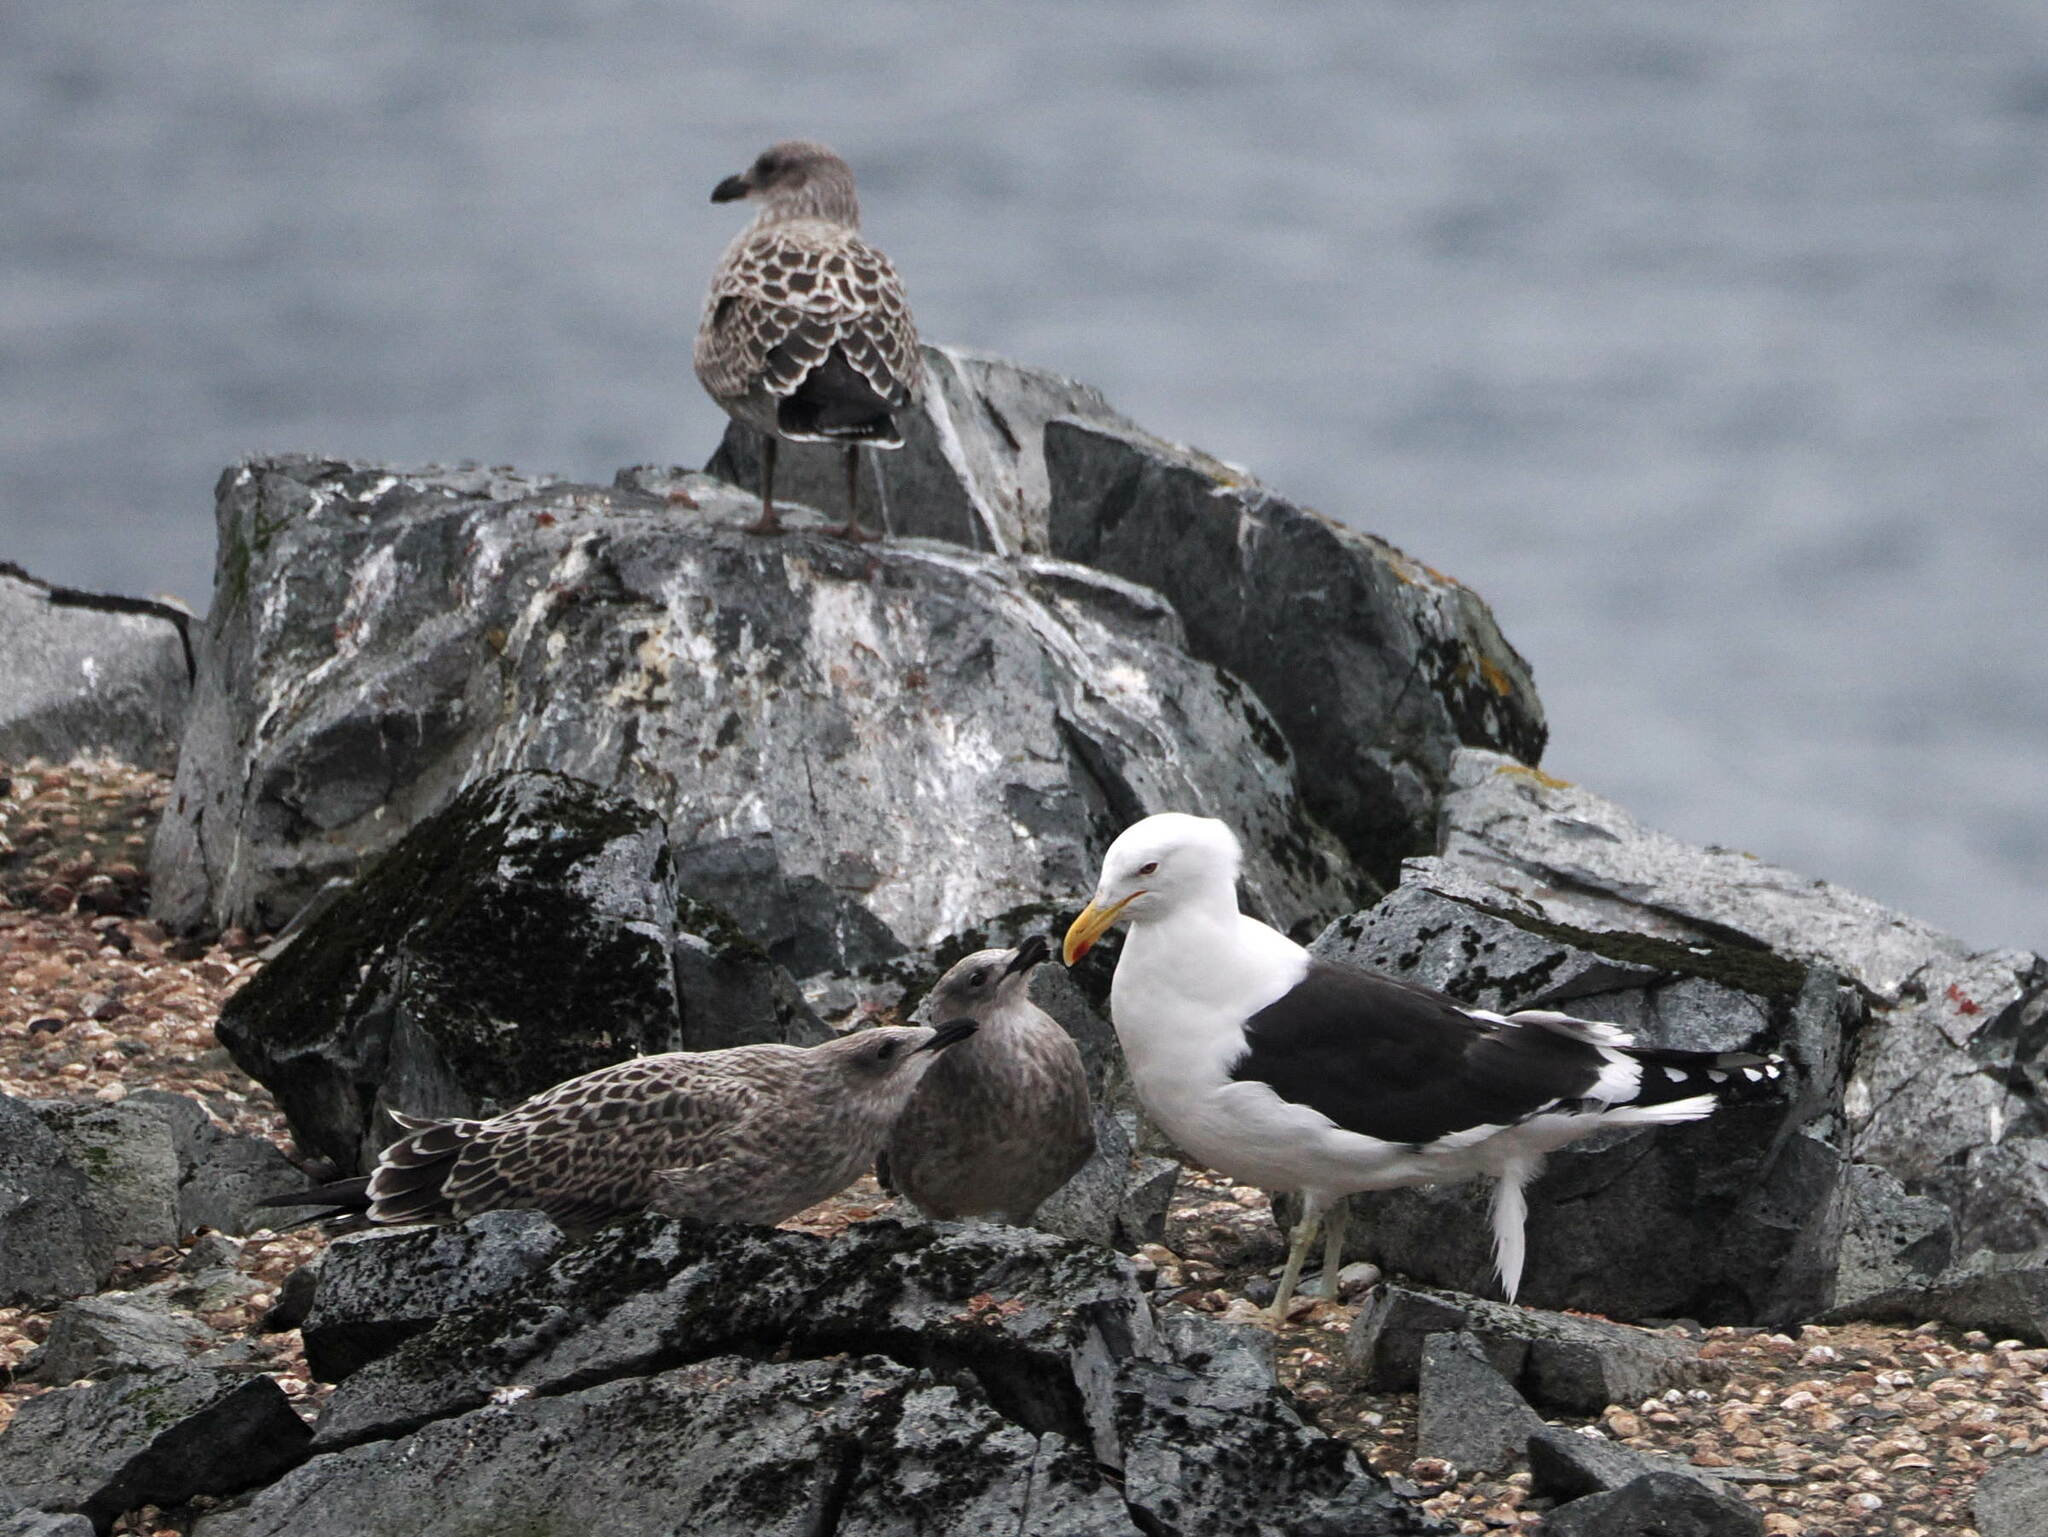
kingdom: Animalia
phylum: Chordata
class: Aves
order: Charadriiformes
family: Laridae
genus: Larus
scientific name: Larus dominicanus
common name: Kelp gull
